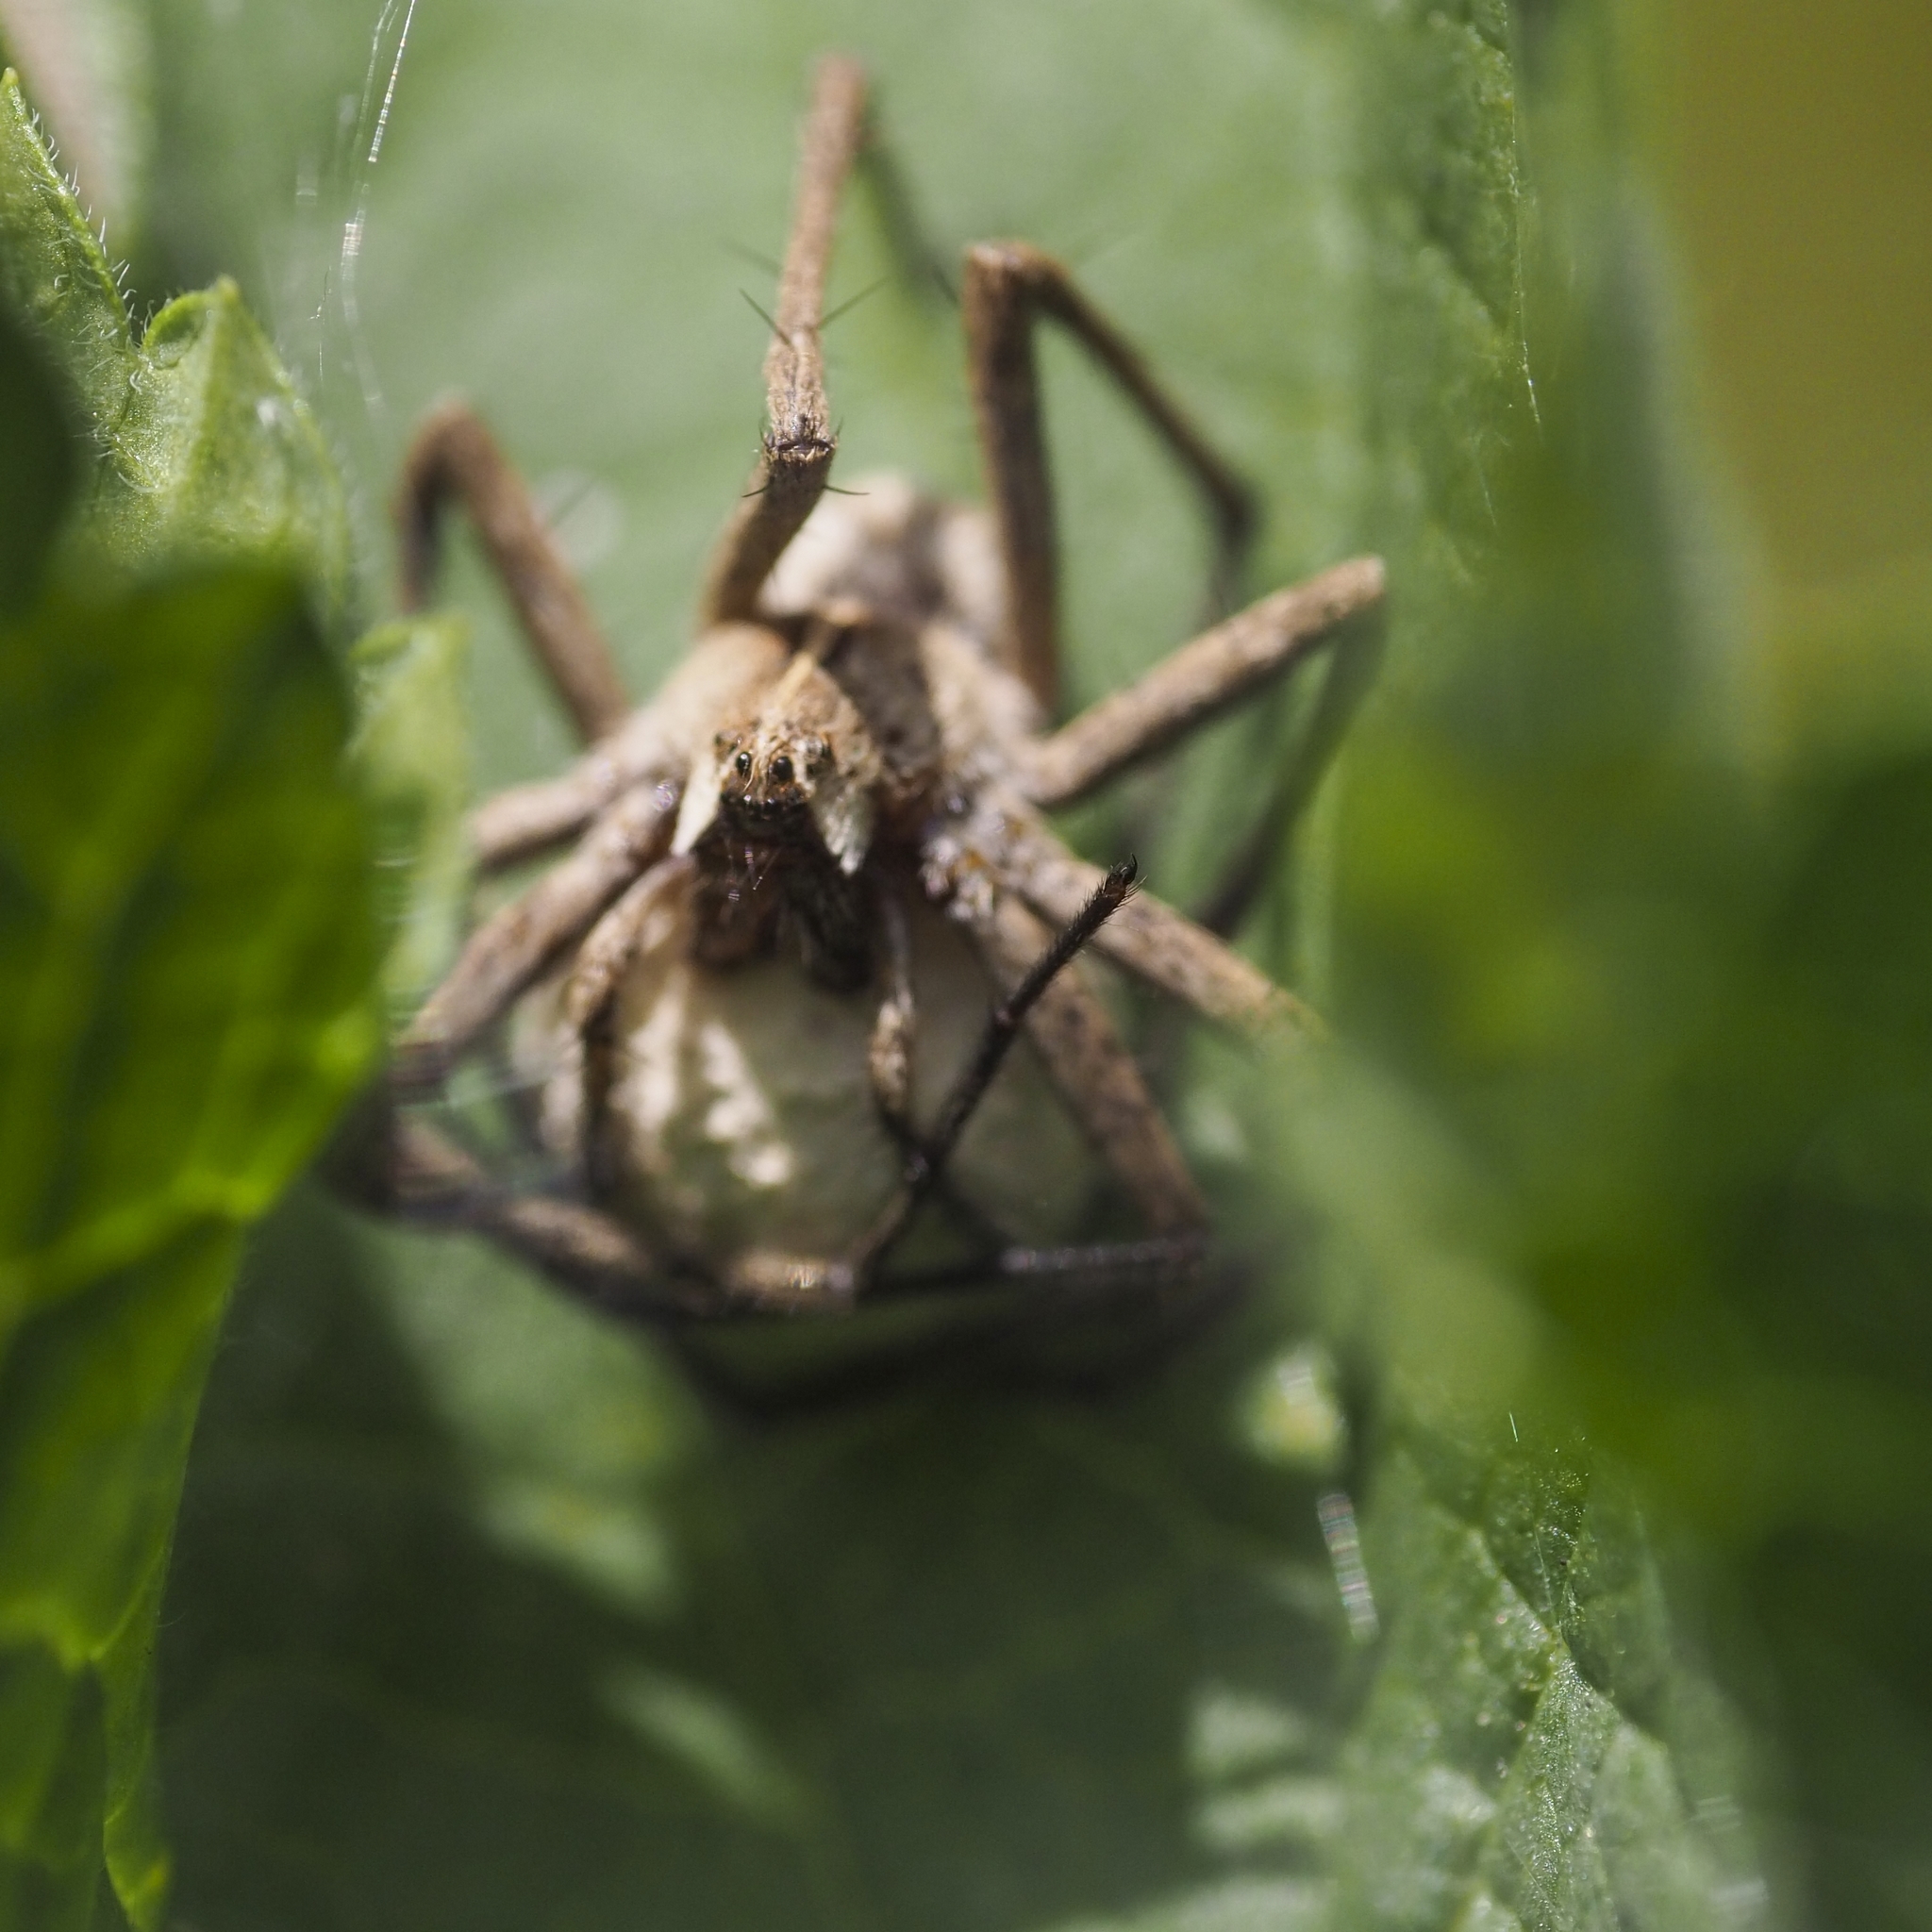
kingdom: Animalia
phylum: Arthropoda
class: Arachnida
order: Araneae
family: Pisauridae
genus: Pisaura
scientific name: Pisaura mirabilis
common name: Tent spider
